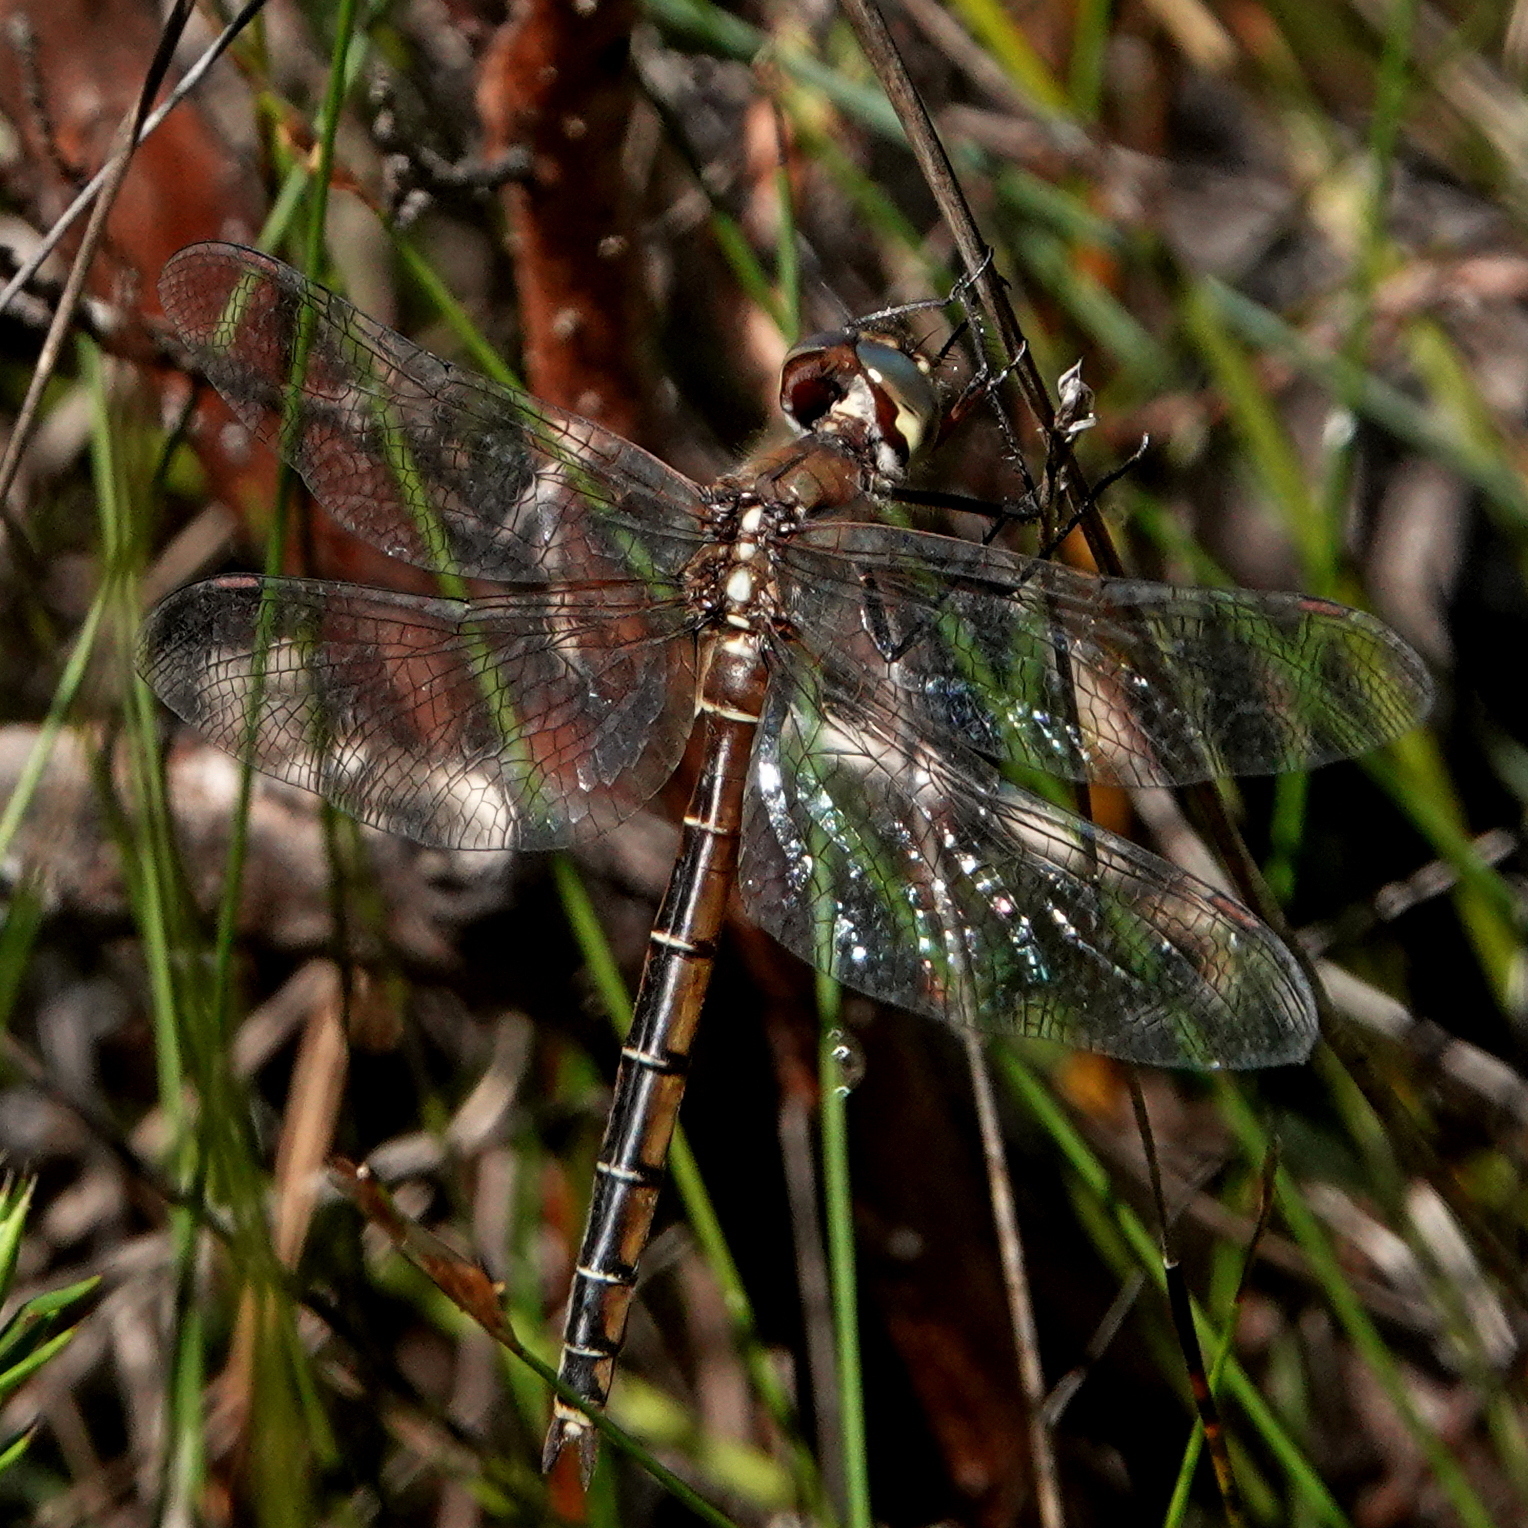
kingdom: Animalia
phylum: Arthropoda
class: Insecta
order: Odonata
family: Corduliidae
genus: Procordulia
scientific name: Procordulia jacksoniensis
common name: Eastern swamp emerald
